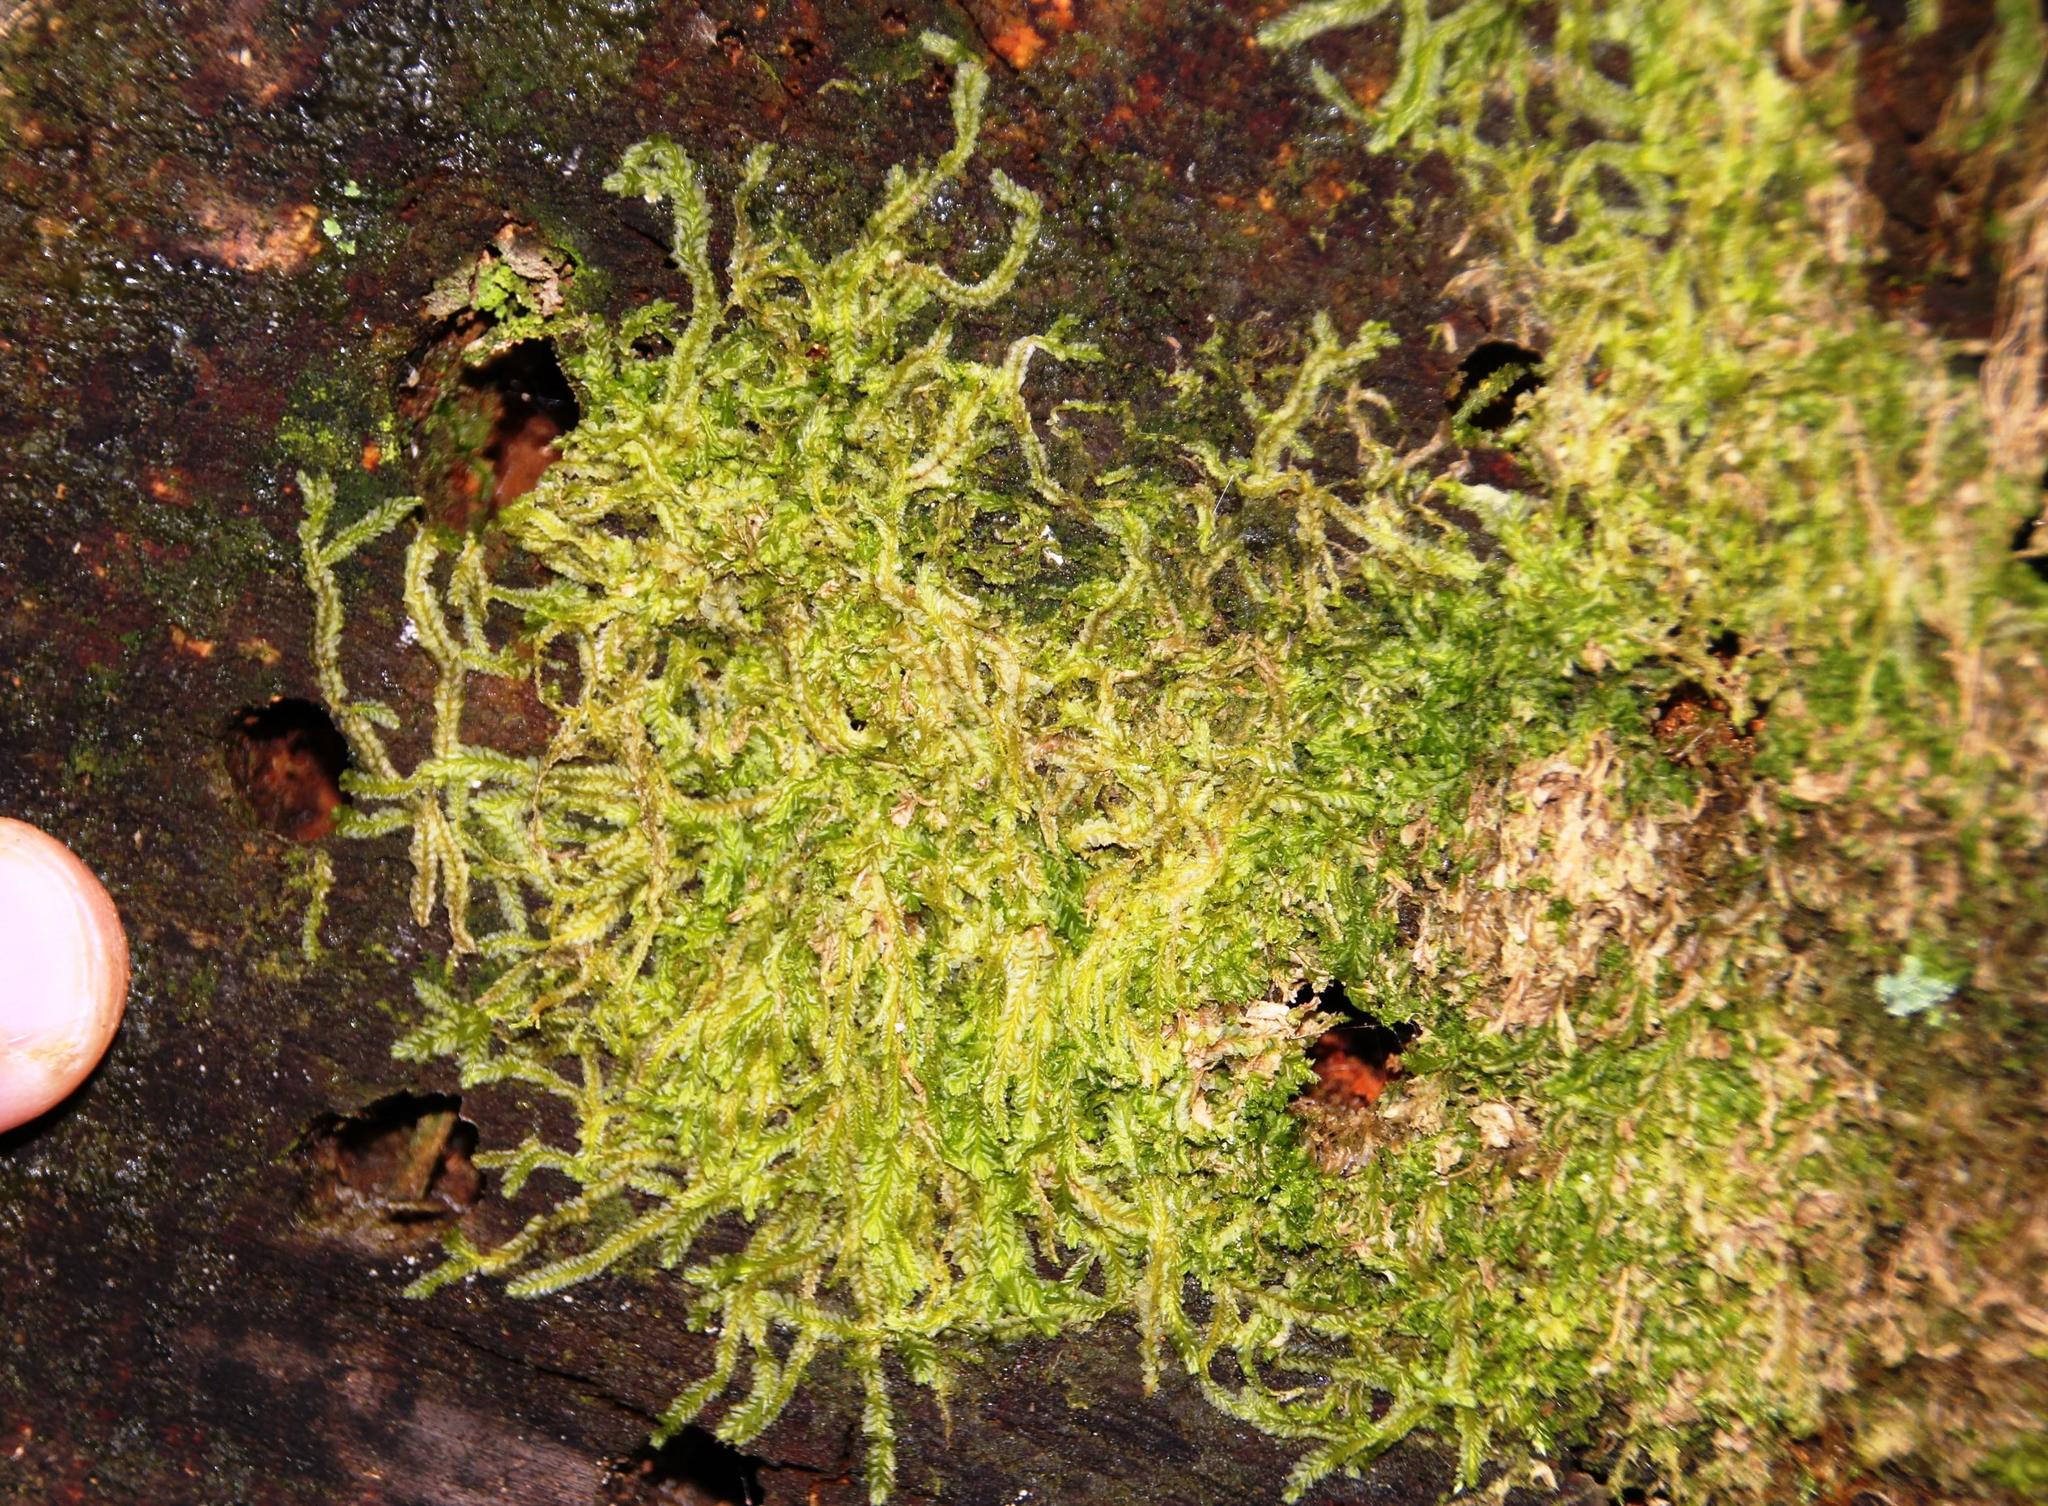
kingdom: Plantae
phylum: Marchantiophyta
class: Jungermanniopsida
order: Jungermanniales
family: Lophocoleaceae
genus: Lophocolea
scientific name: Lophocolea bidentata
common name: Bifid crestwort
